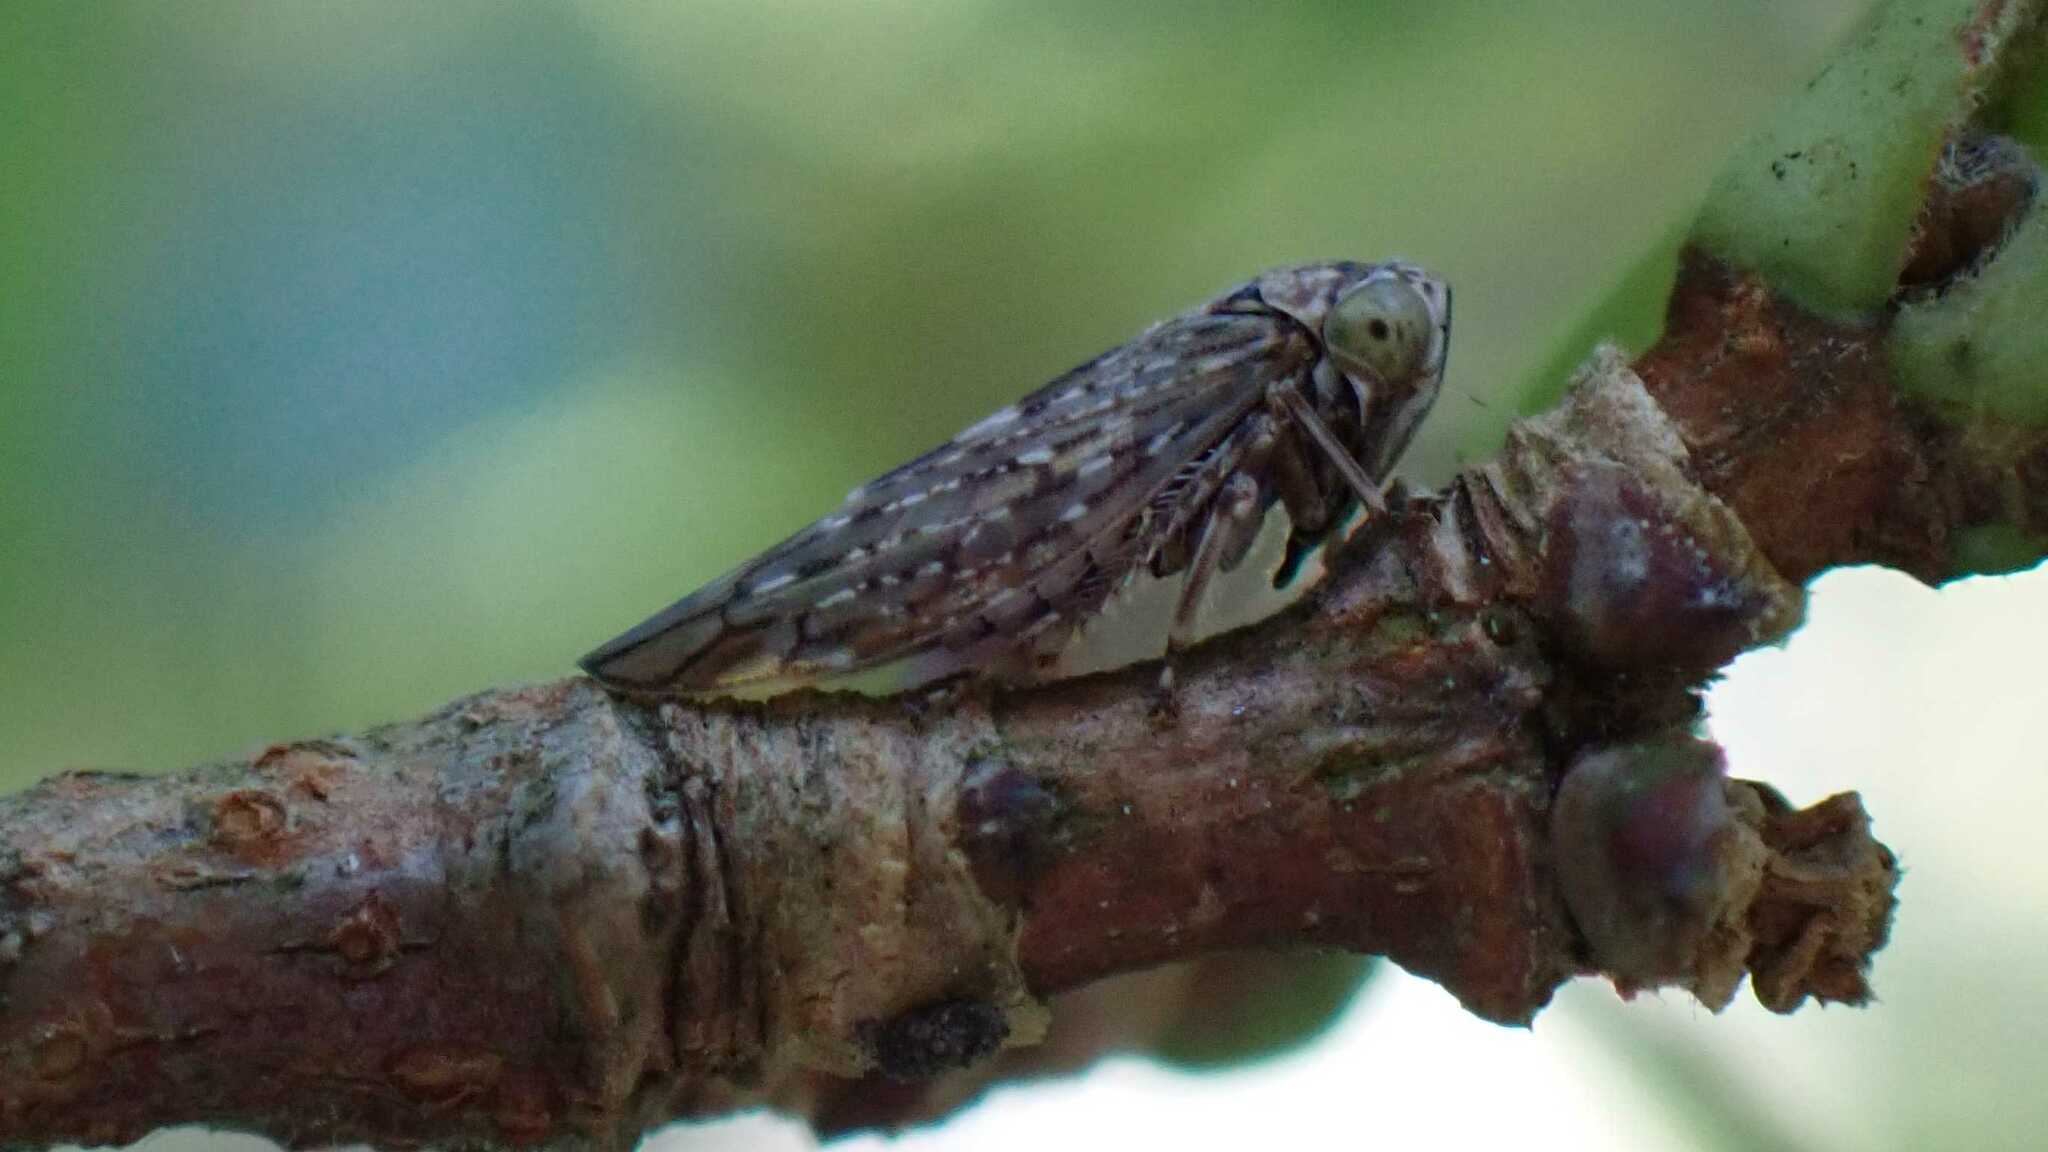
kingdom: Animalia
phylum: Arthropoda
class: Insecta
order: Hemiptera
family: Cicadellidae
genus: Acericerus
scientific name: Acericerus vittifrons
